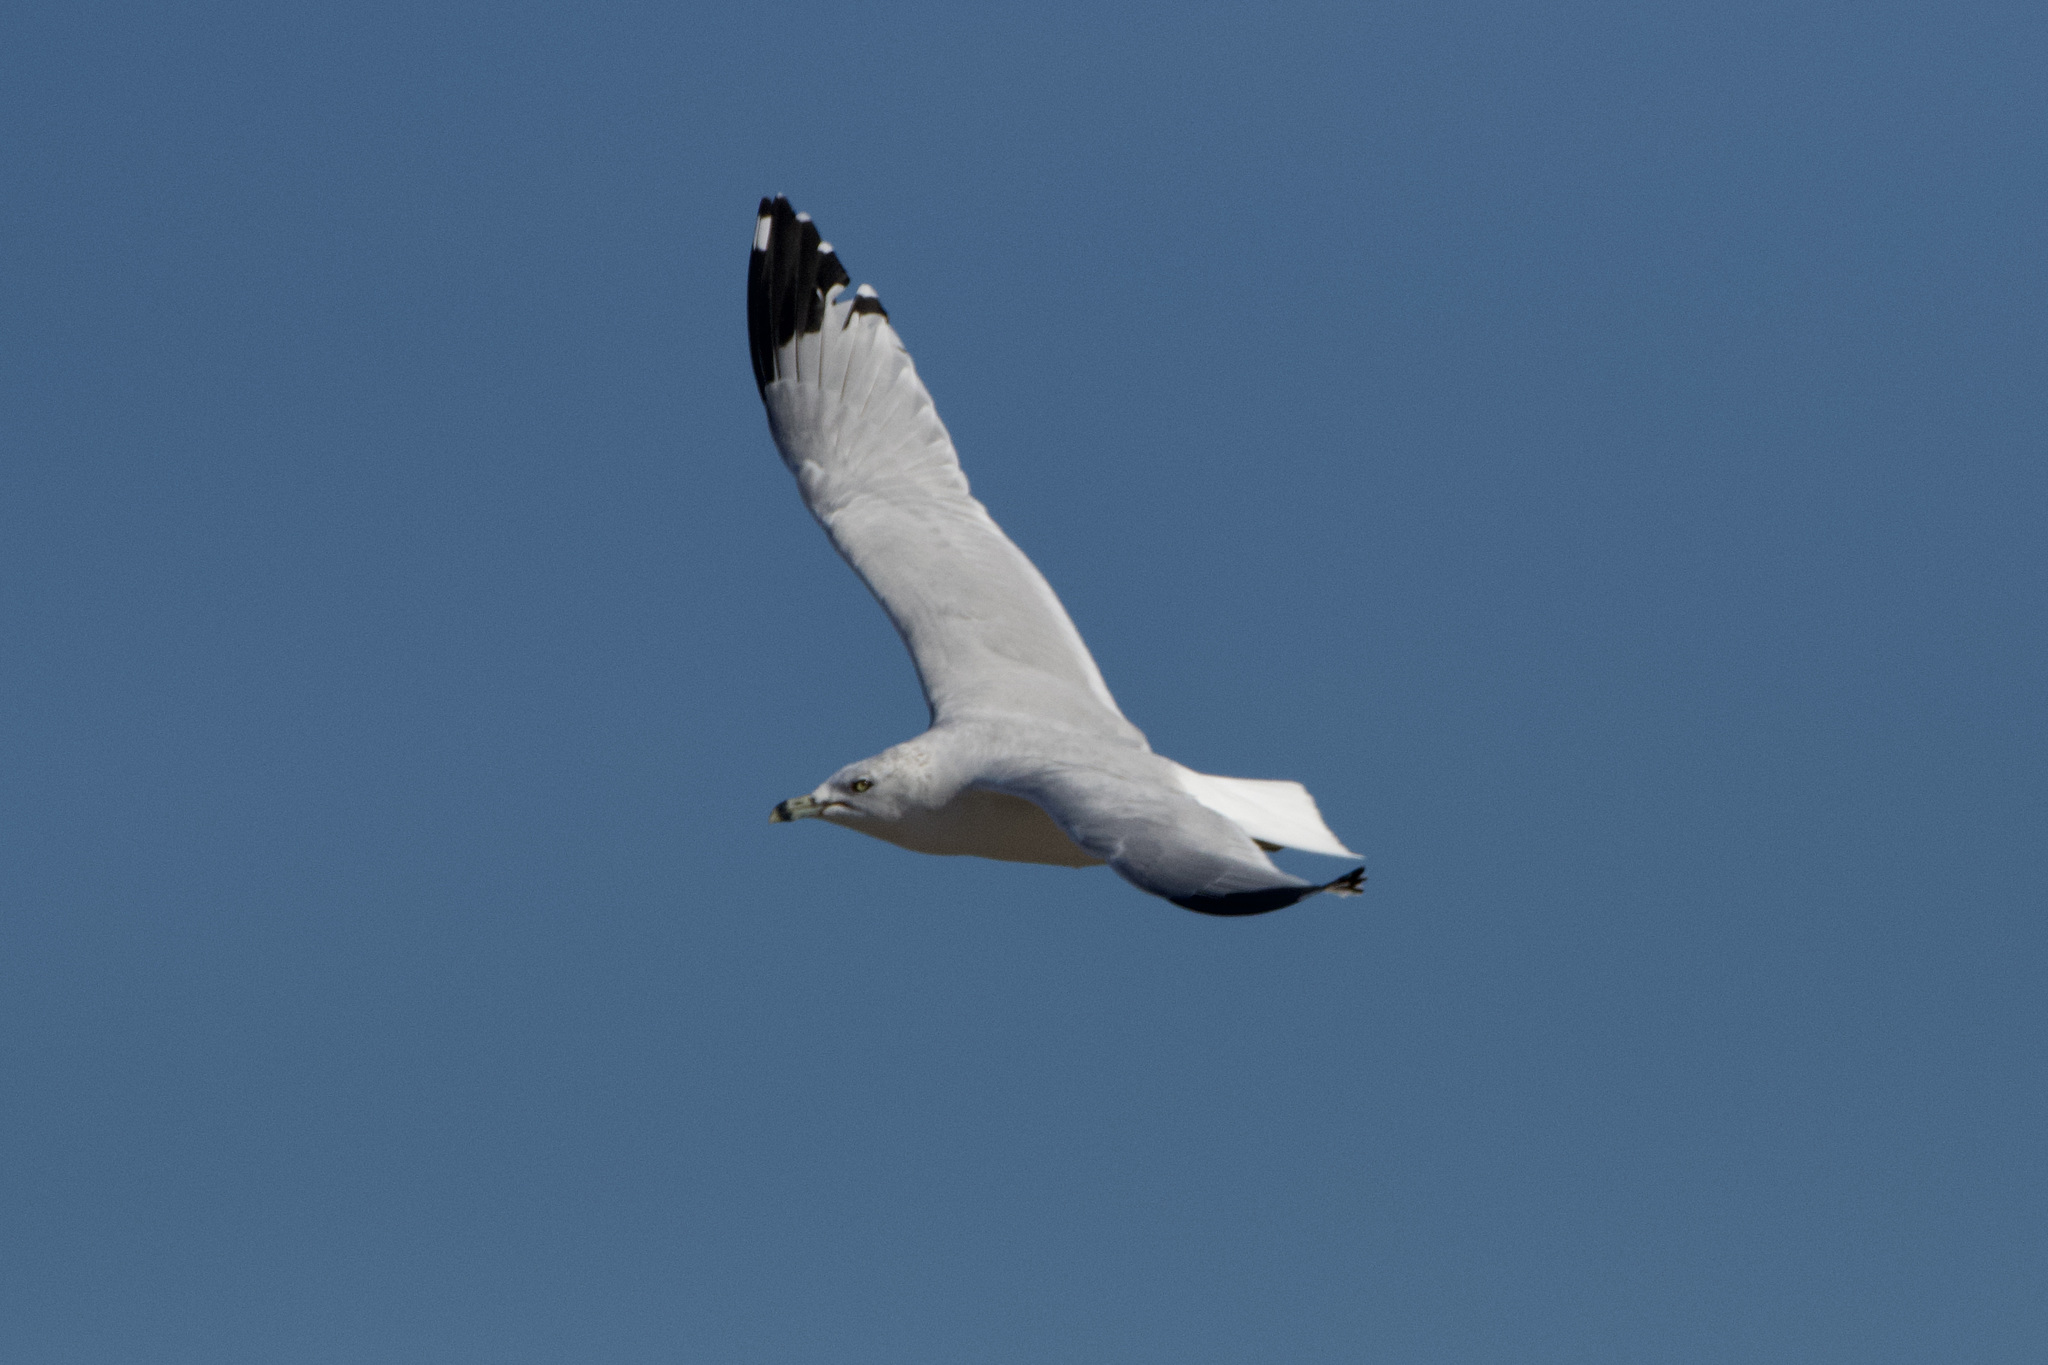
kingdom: Animalia
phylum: Chordata
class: Aves
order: Charadriiformes
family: Laridae
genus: Larus
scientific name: Larus delawarensis
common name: Ring-billed gull
